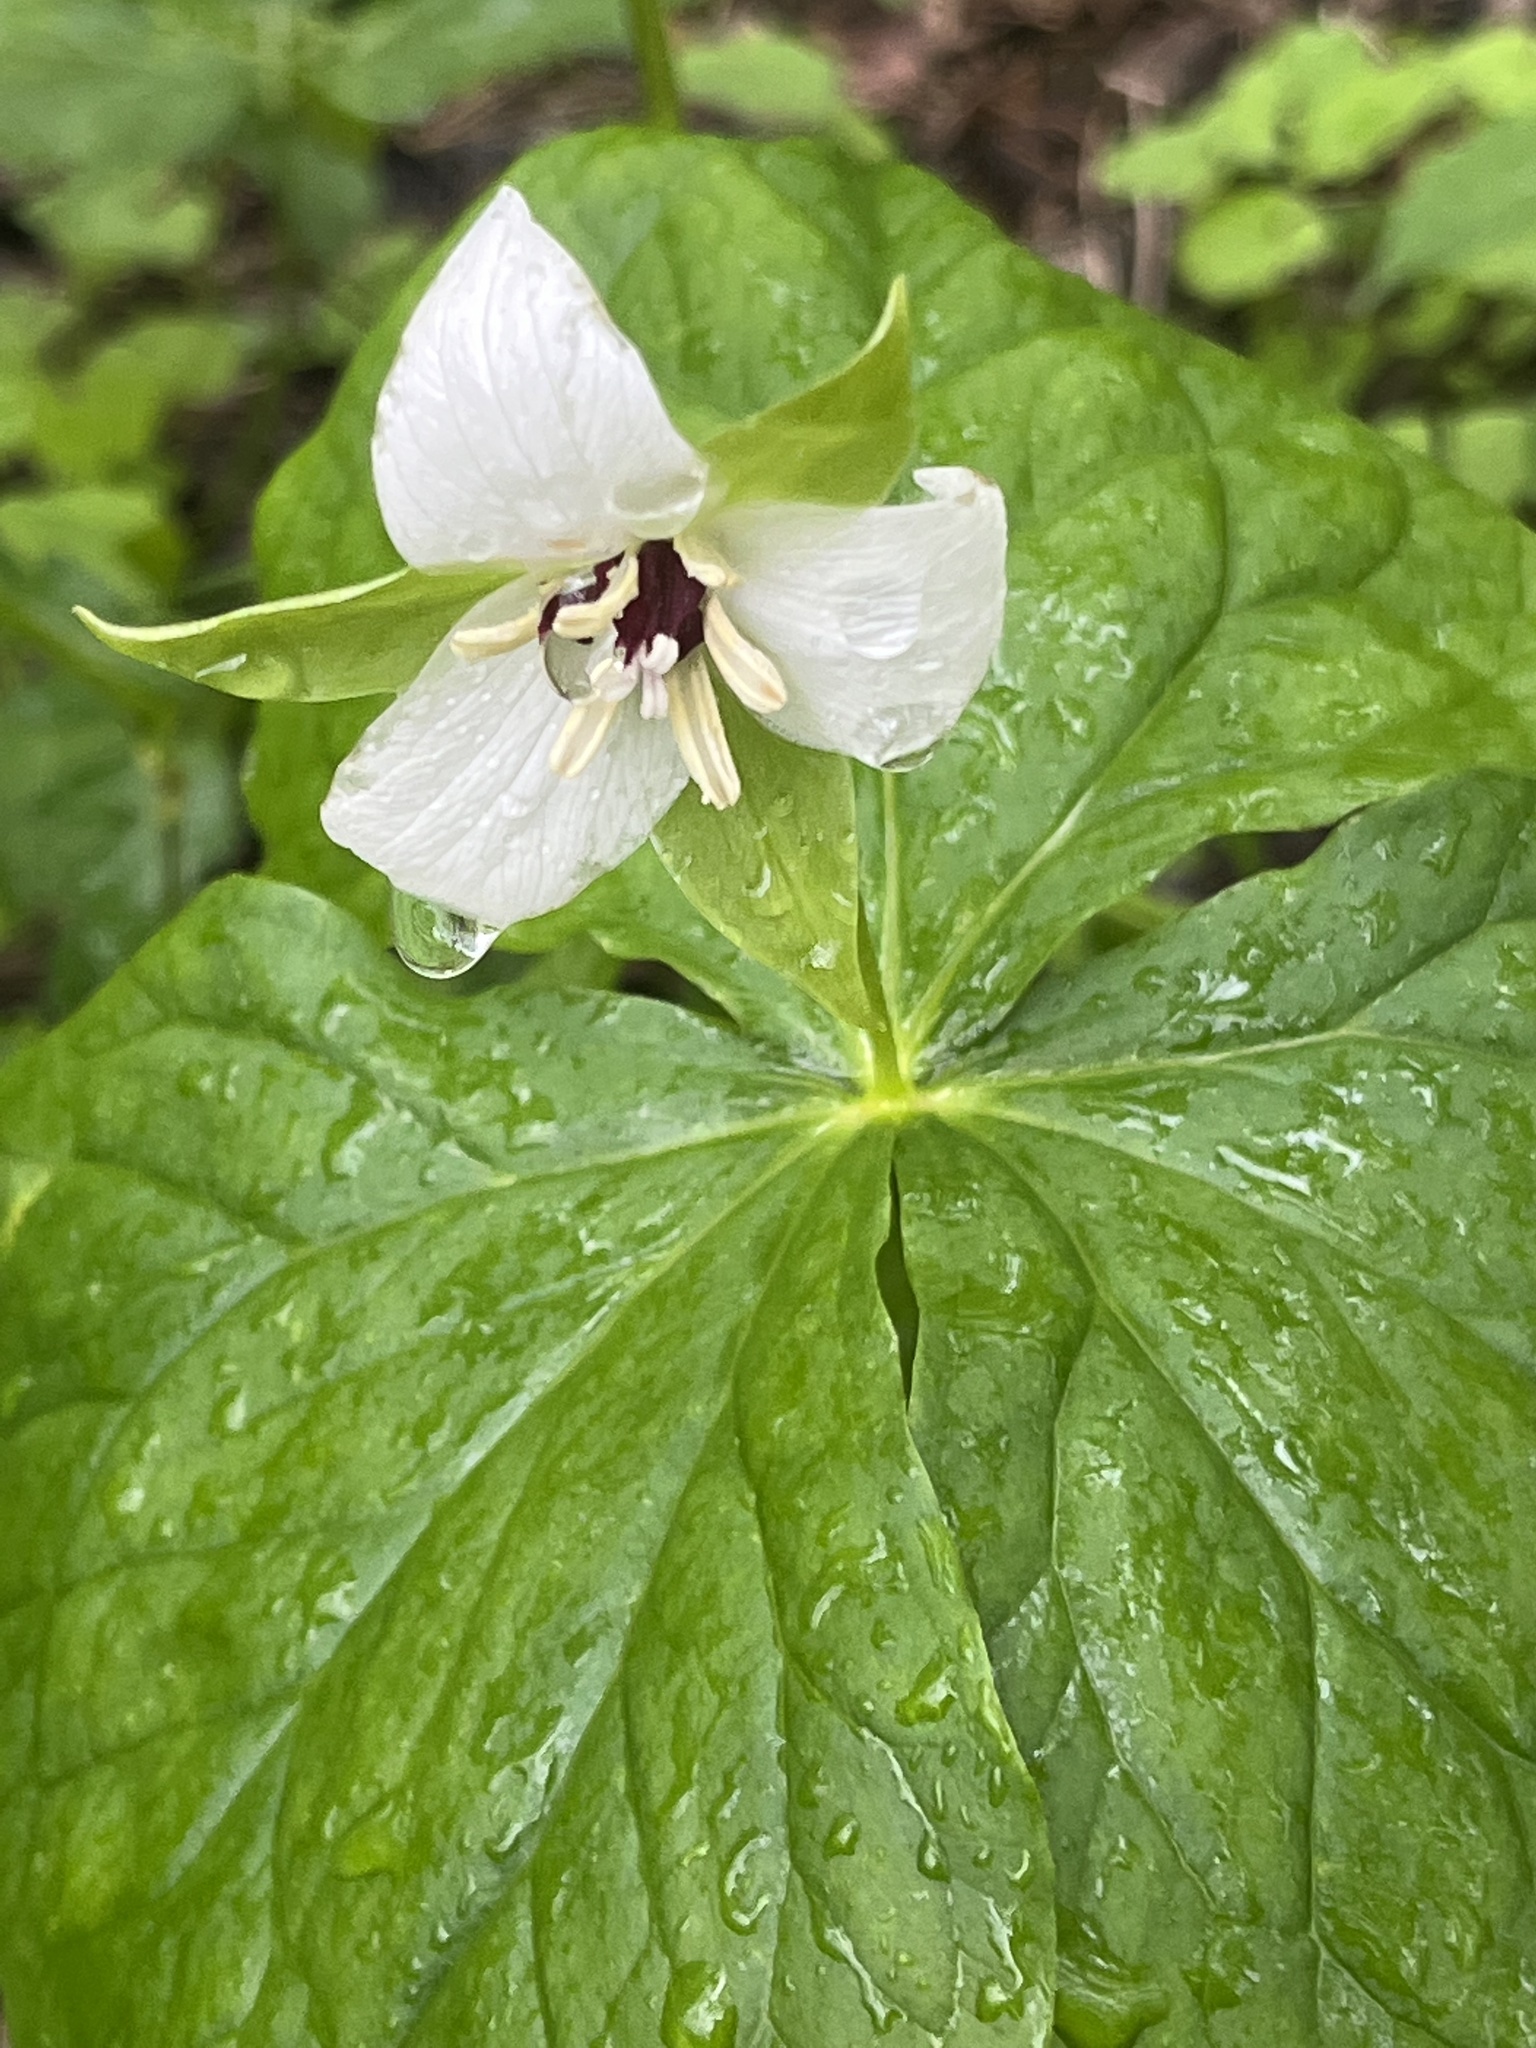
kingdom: Plantae
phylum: Tracheophyta
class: Liliopsida
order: Liliales
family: Melanthiaceae
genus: Trillium
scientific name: Trillium erectum
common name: Purple trillium
